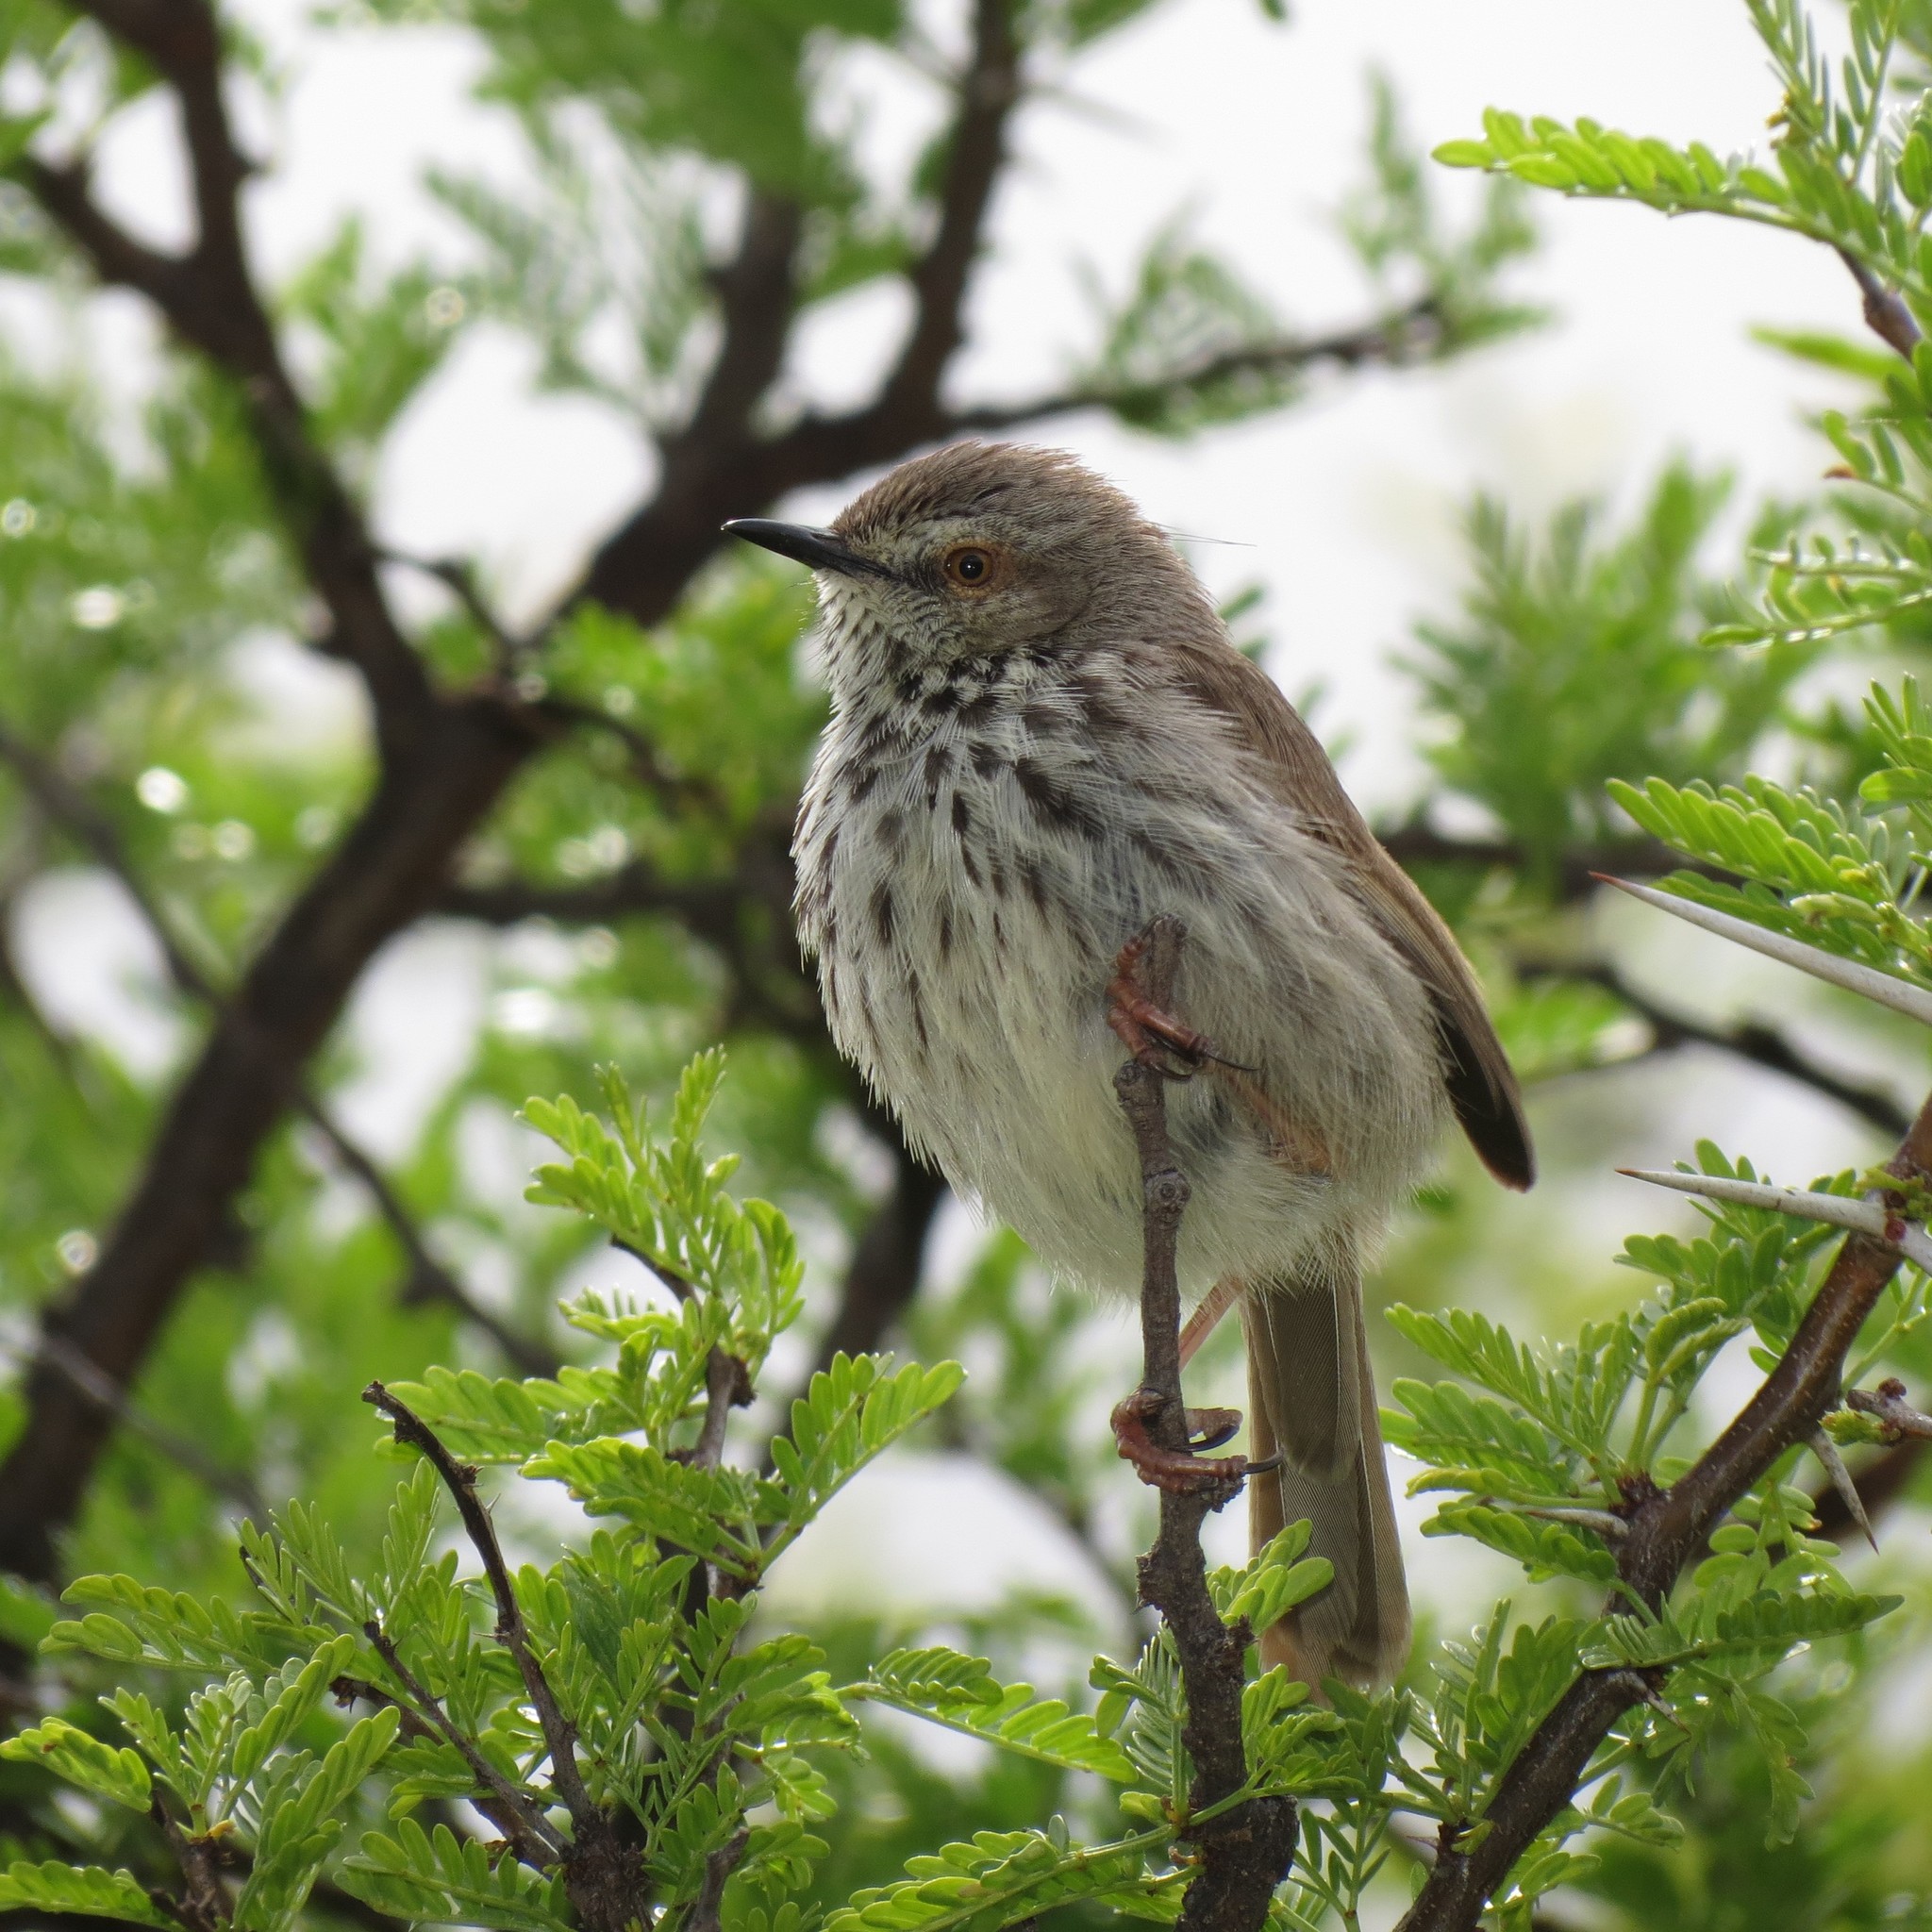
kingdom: Animalia
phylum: Chordata
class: Aves
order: Passeriformes
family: Cisticolidae
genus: Prinia
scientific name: Prinia maculosa
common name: Karoo prinia
